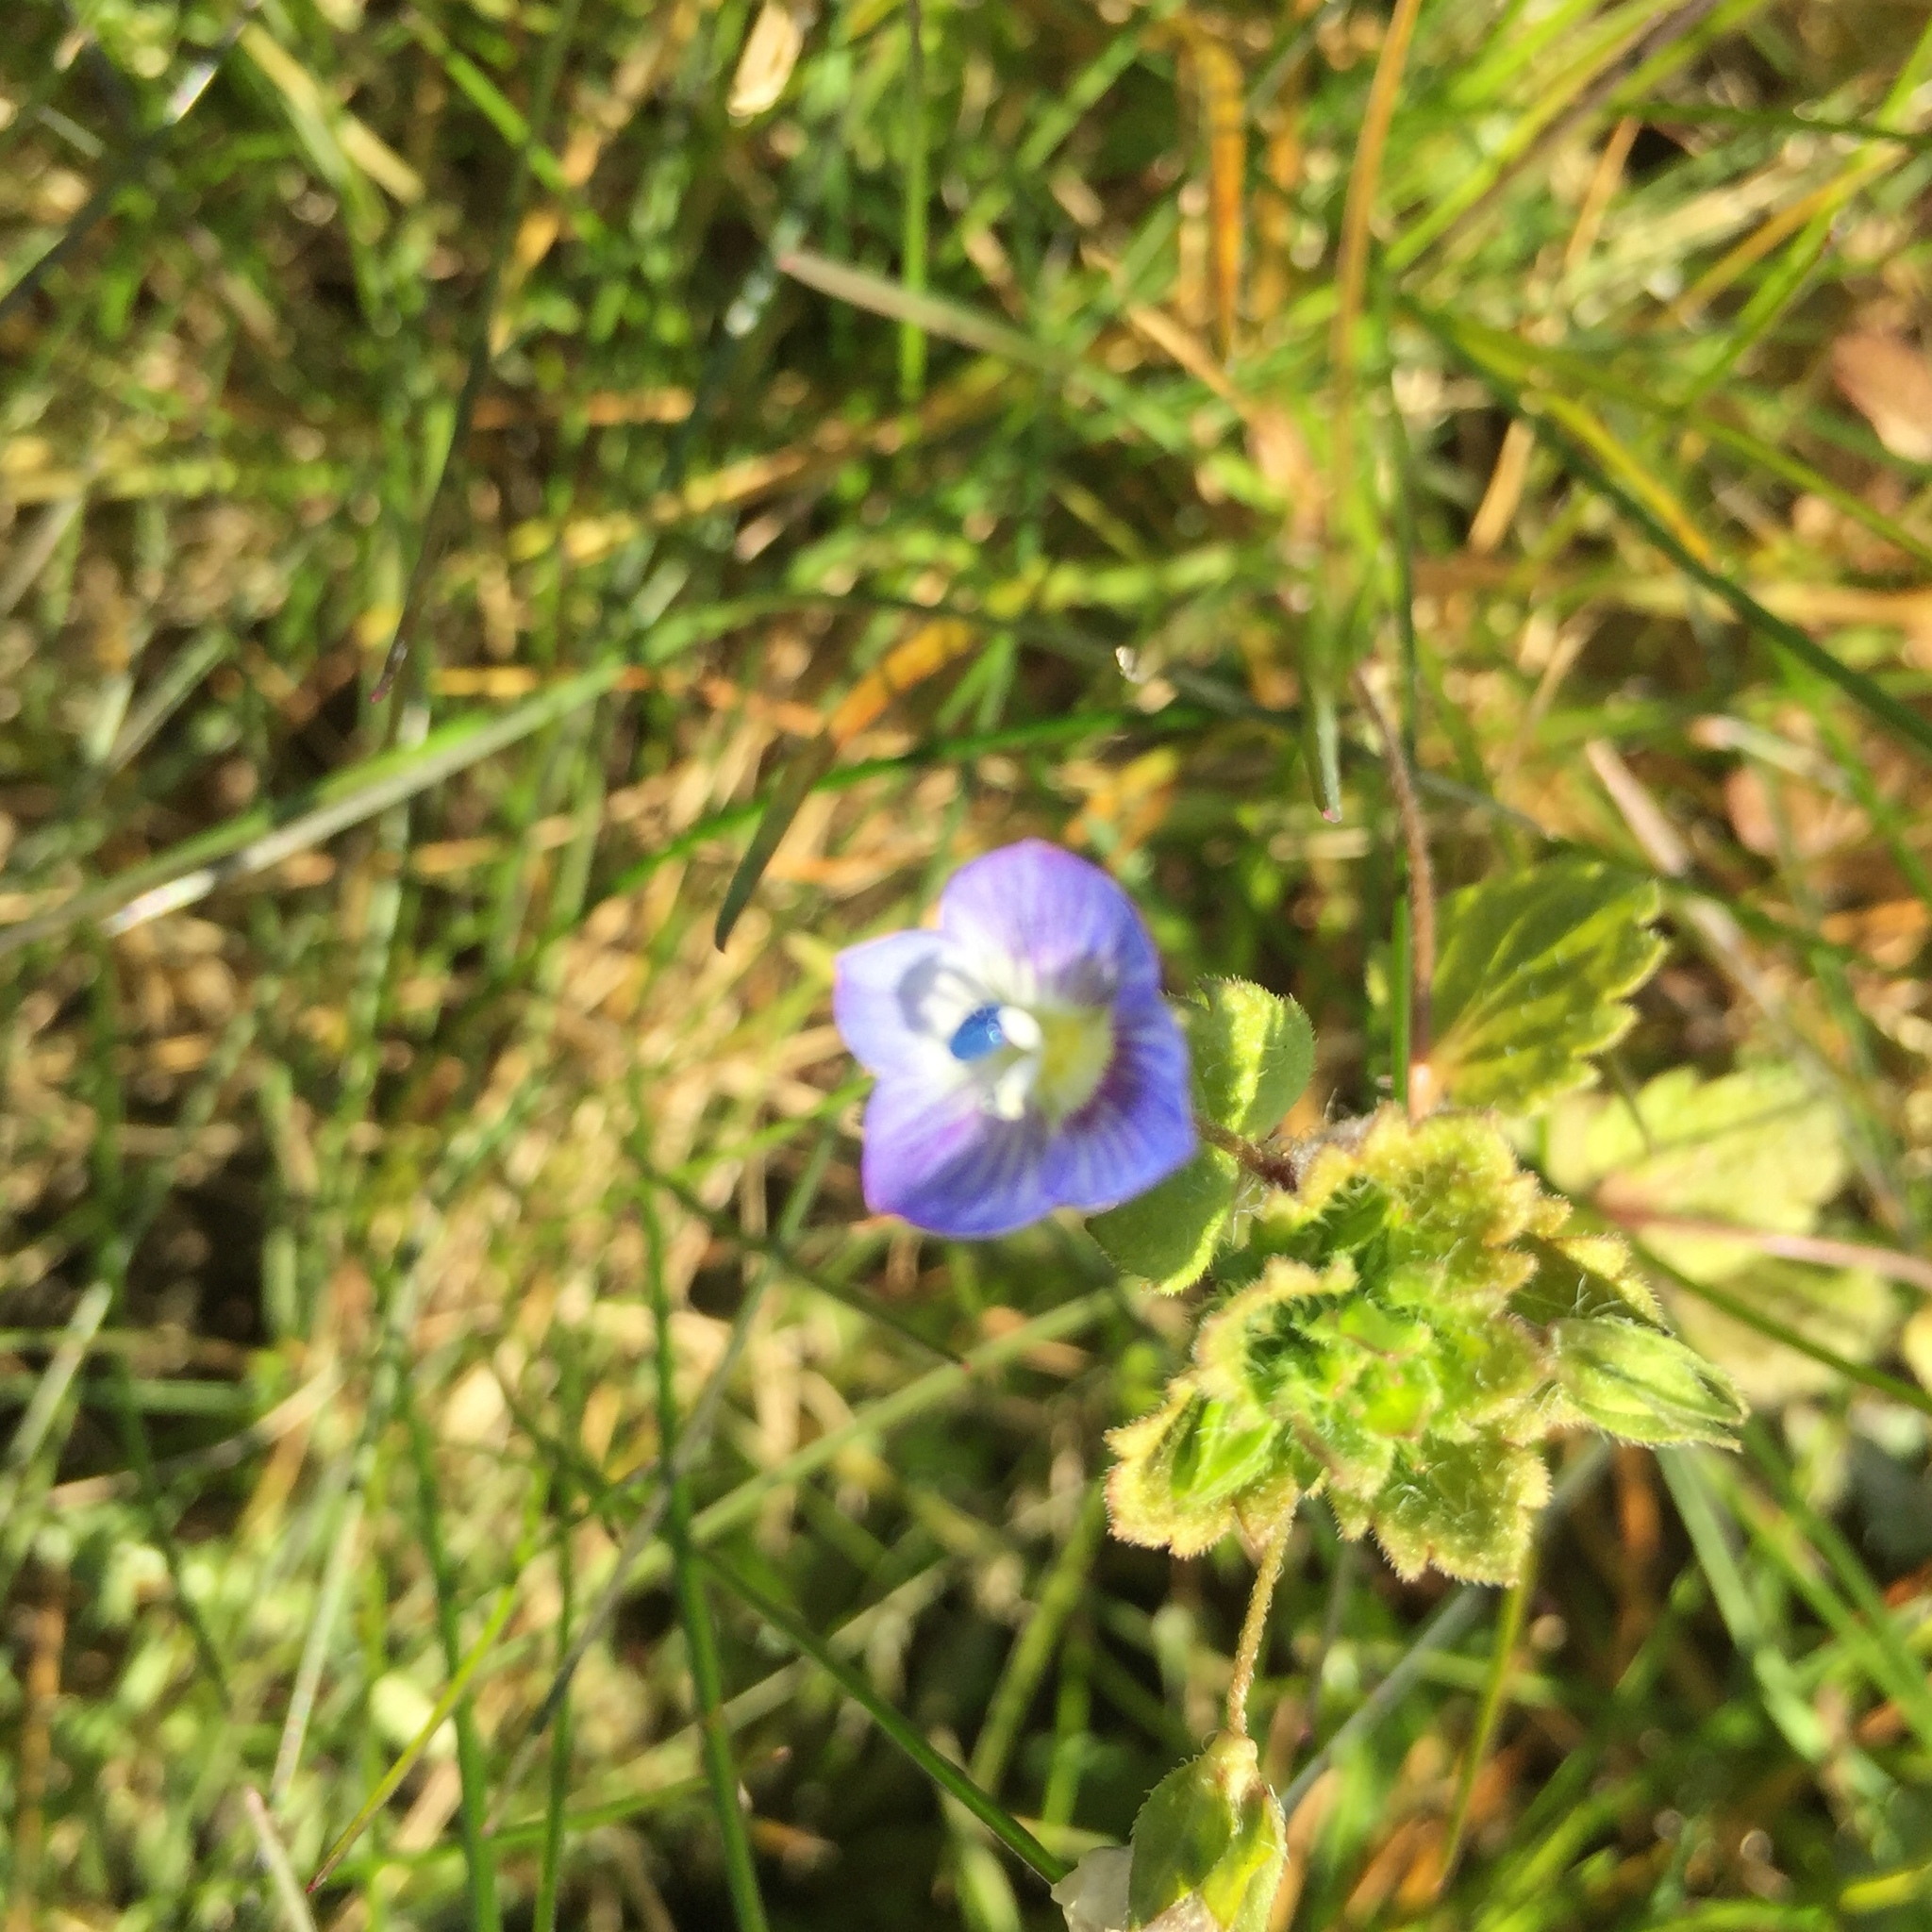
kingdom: Plantae
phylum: Tracheophyta
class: Magnoliopsida
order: Lamiales
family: Plantaginaceae
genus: Veronica
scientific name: Veronica persica
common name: Common field-speedwell
